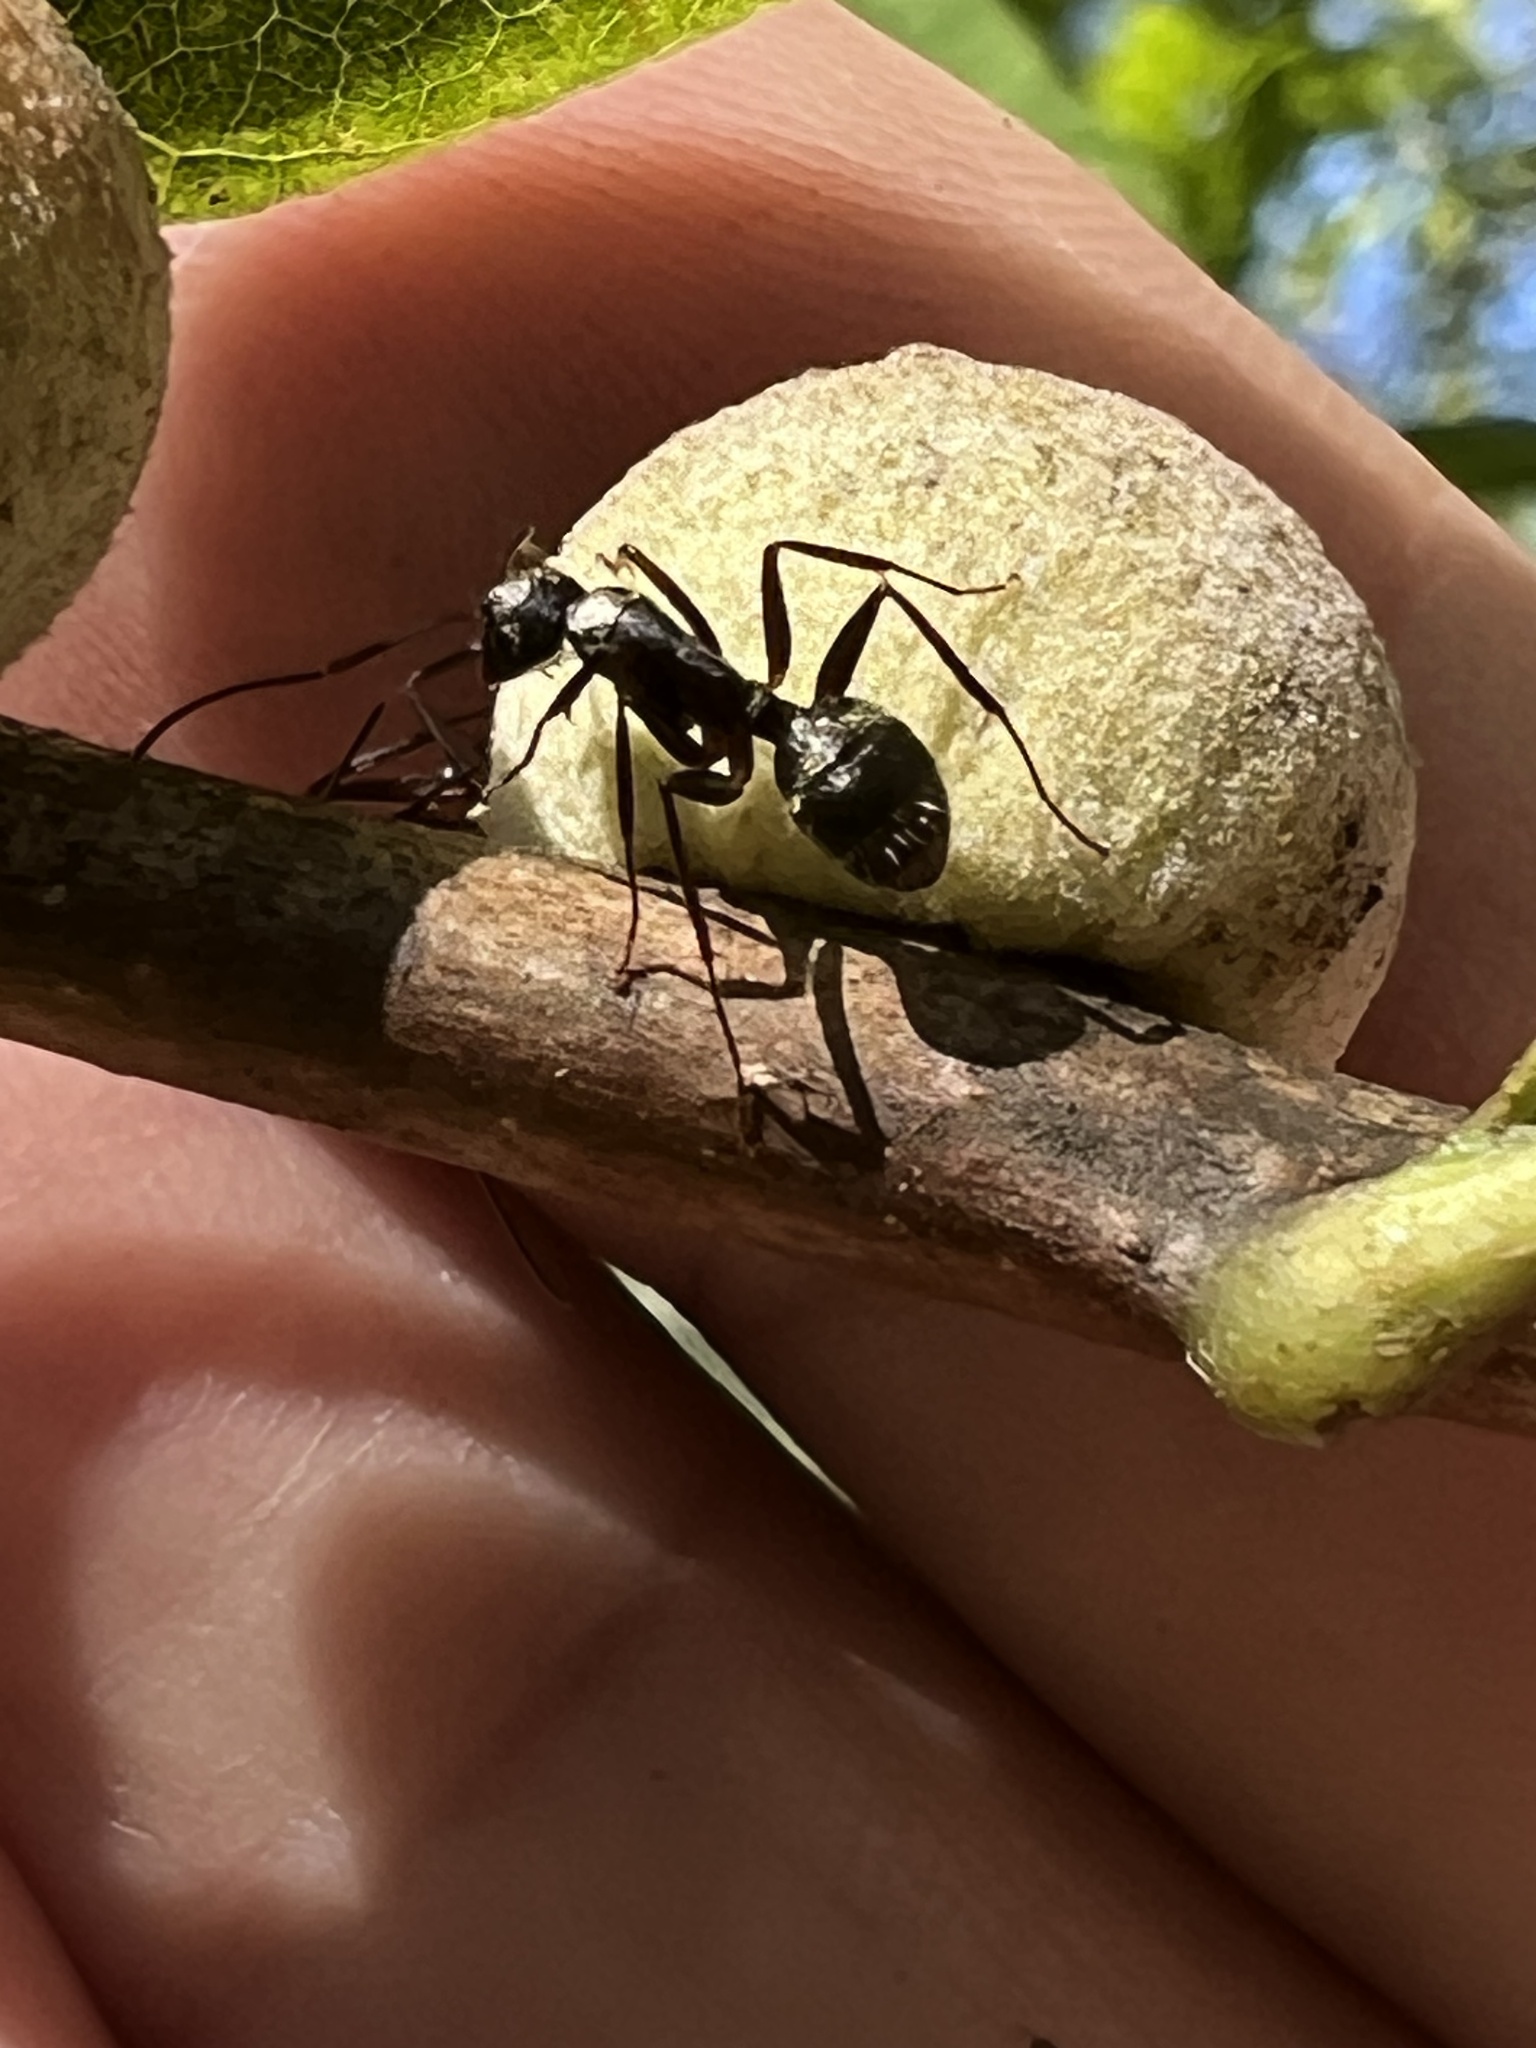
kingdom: Animalia
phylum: Arthropoda
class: Insecta
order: Hymenoptera
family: Formicidae
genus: Camponotus
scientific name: Camponotus chromaiodes
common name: Red carpenter ant
